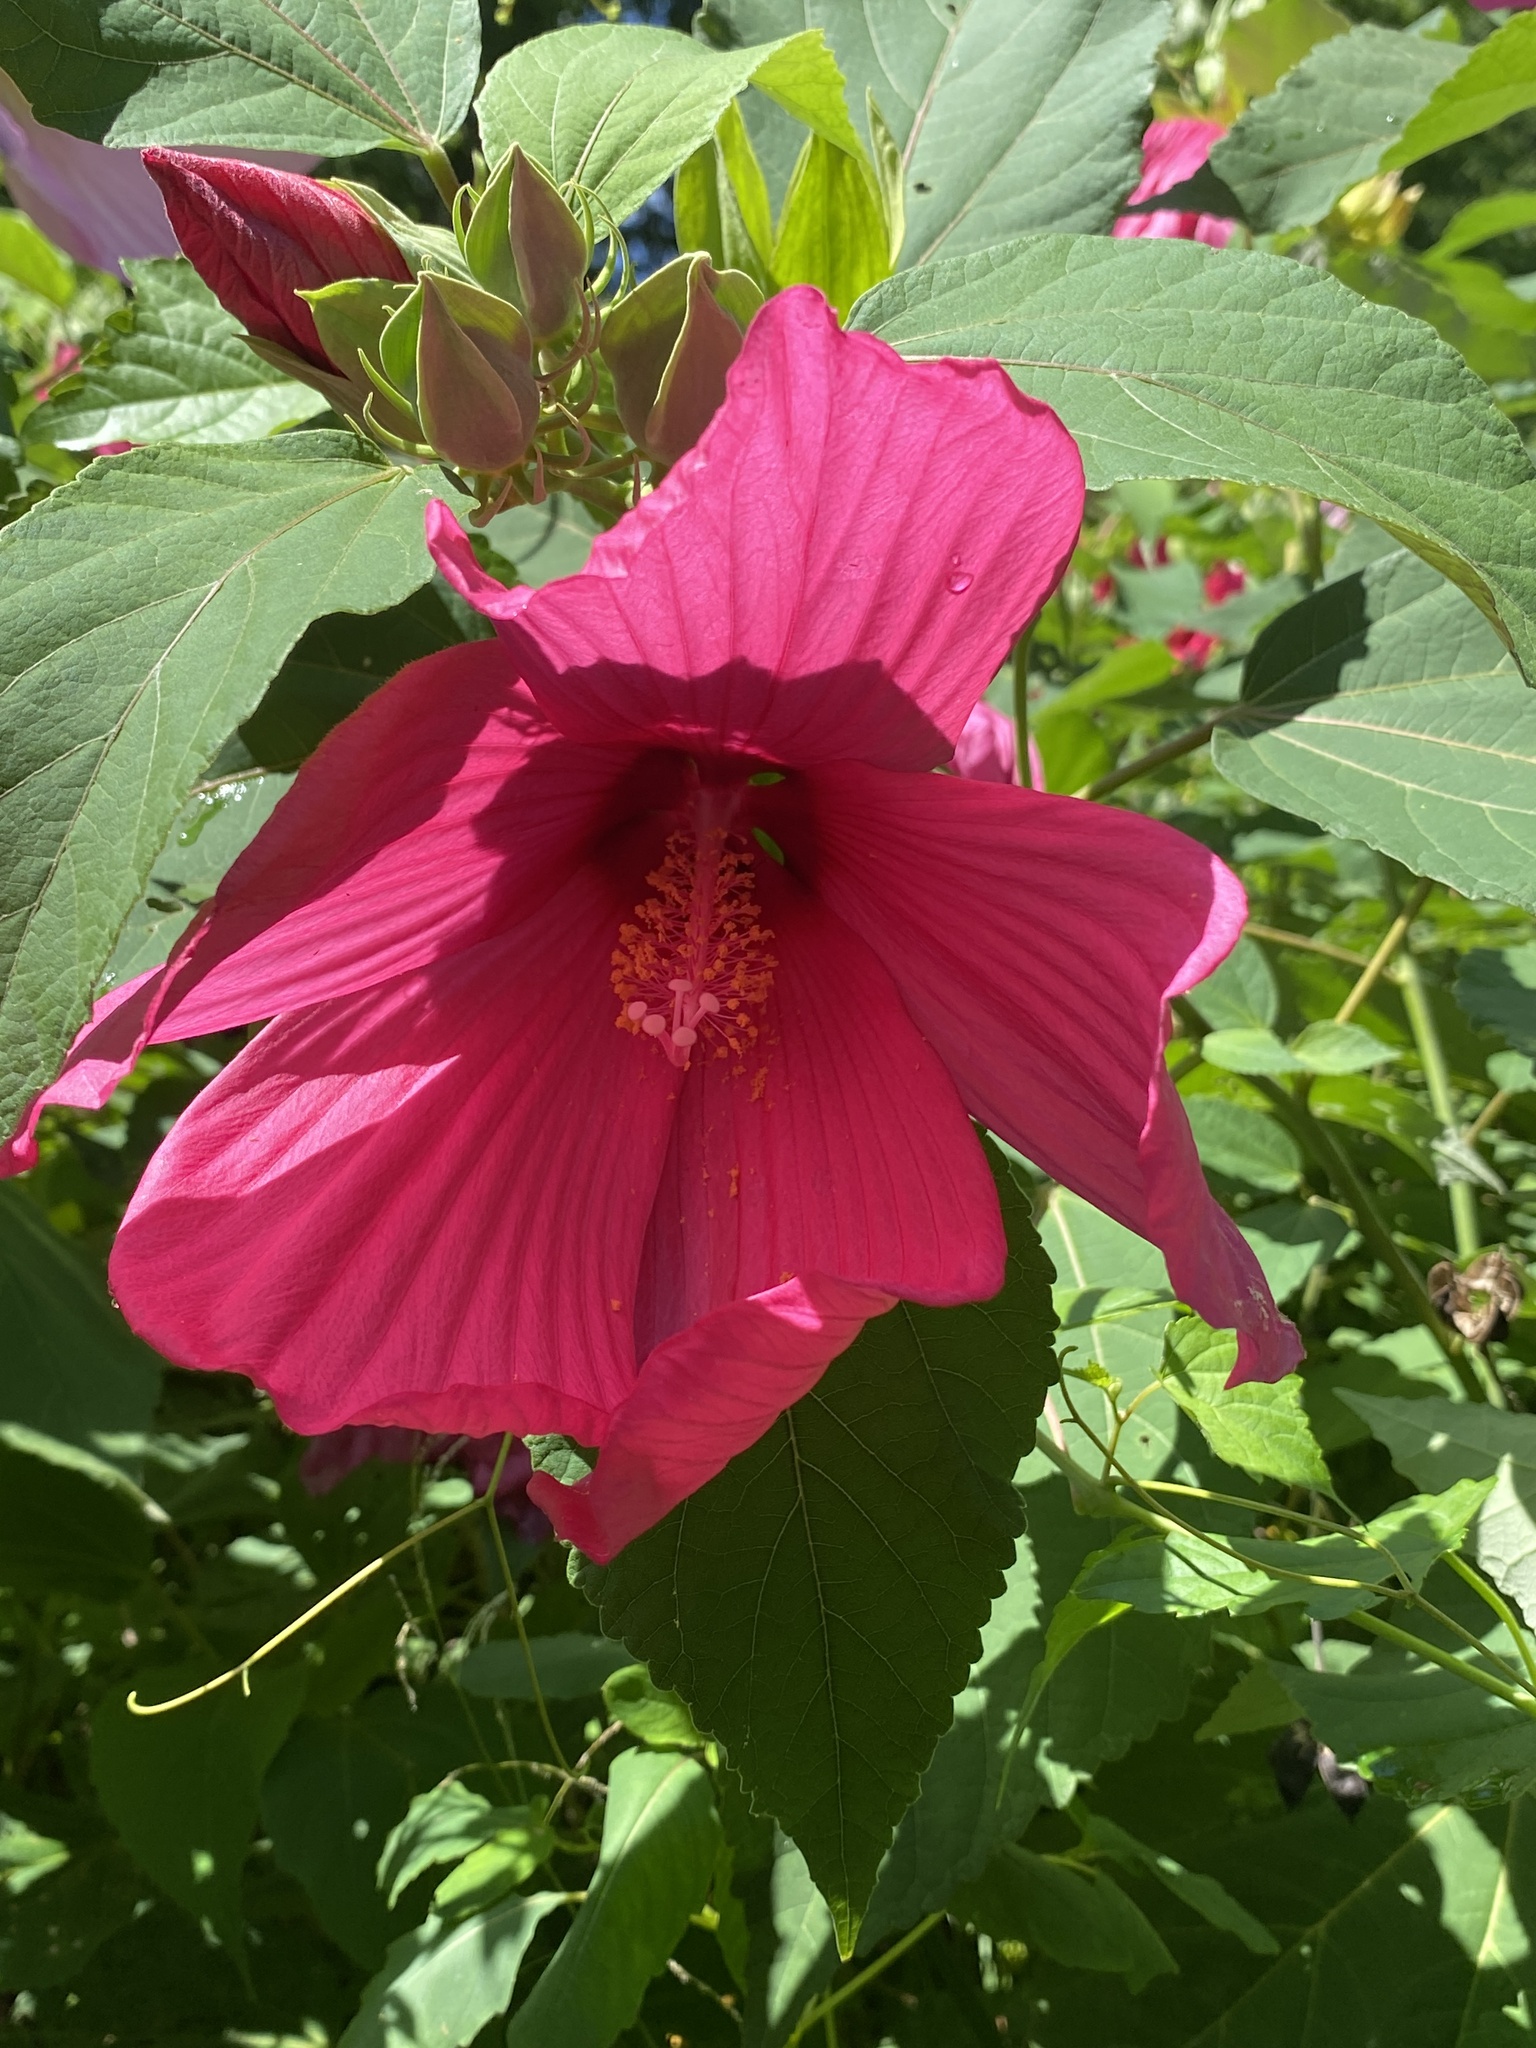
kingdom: Plantae
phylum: Tracheophyta
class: Magnoliopsida
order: Malvales
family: Malvaceae
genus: Hibiscus
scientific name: Hibiscus moscheutos
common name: Common rose-mallow
